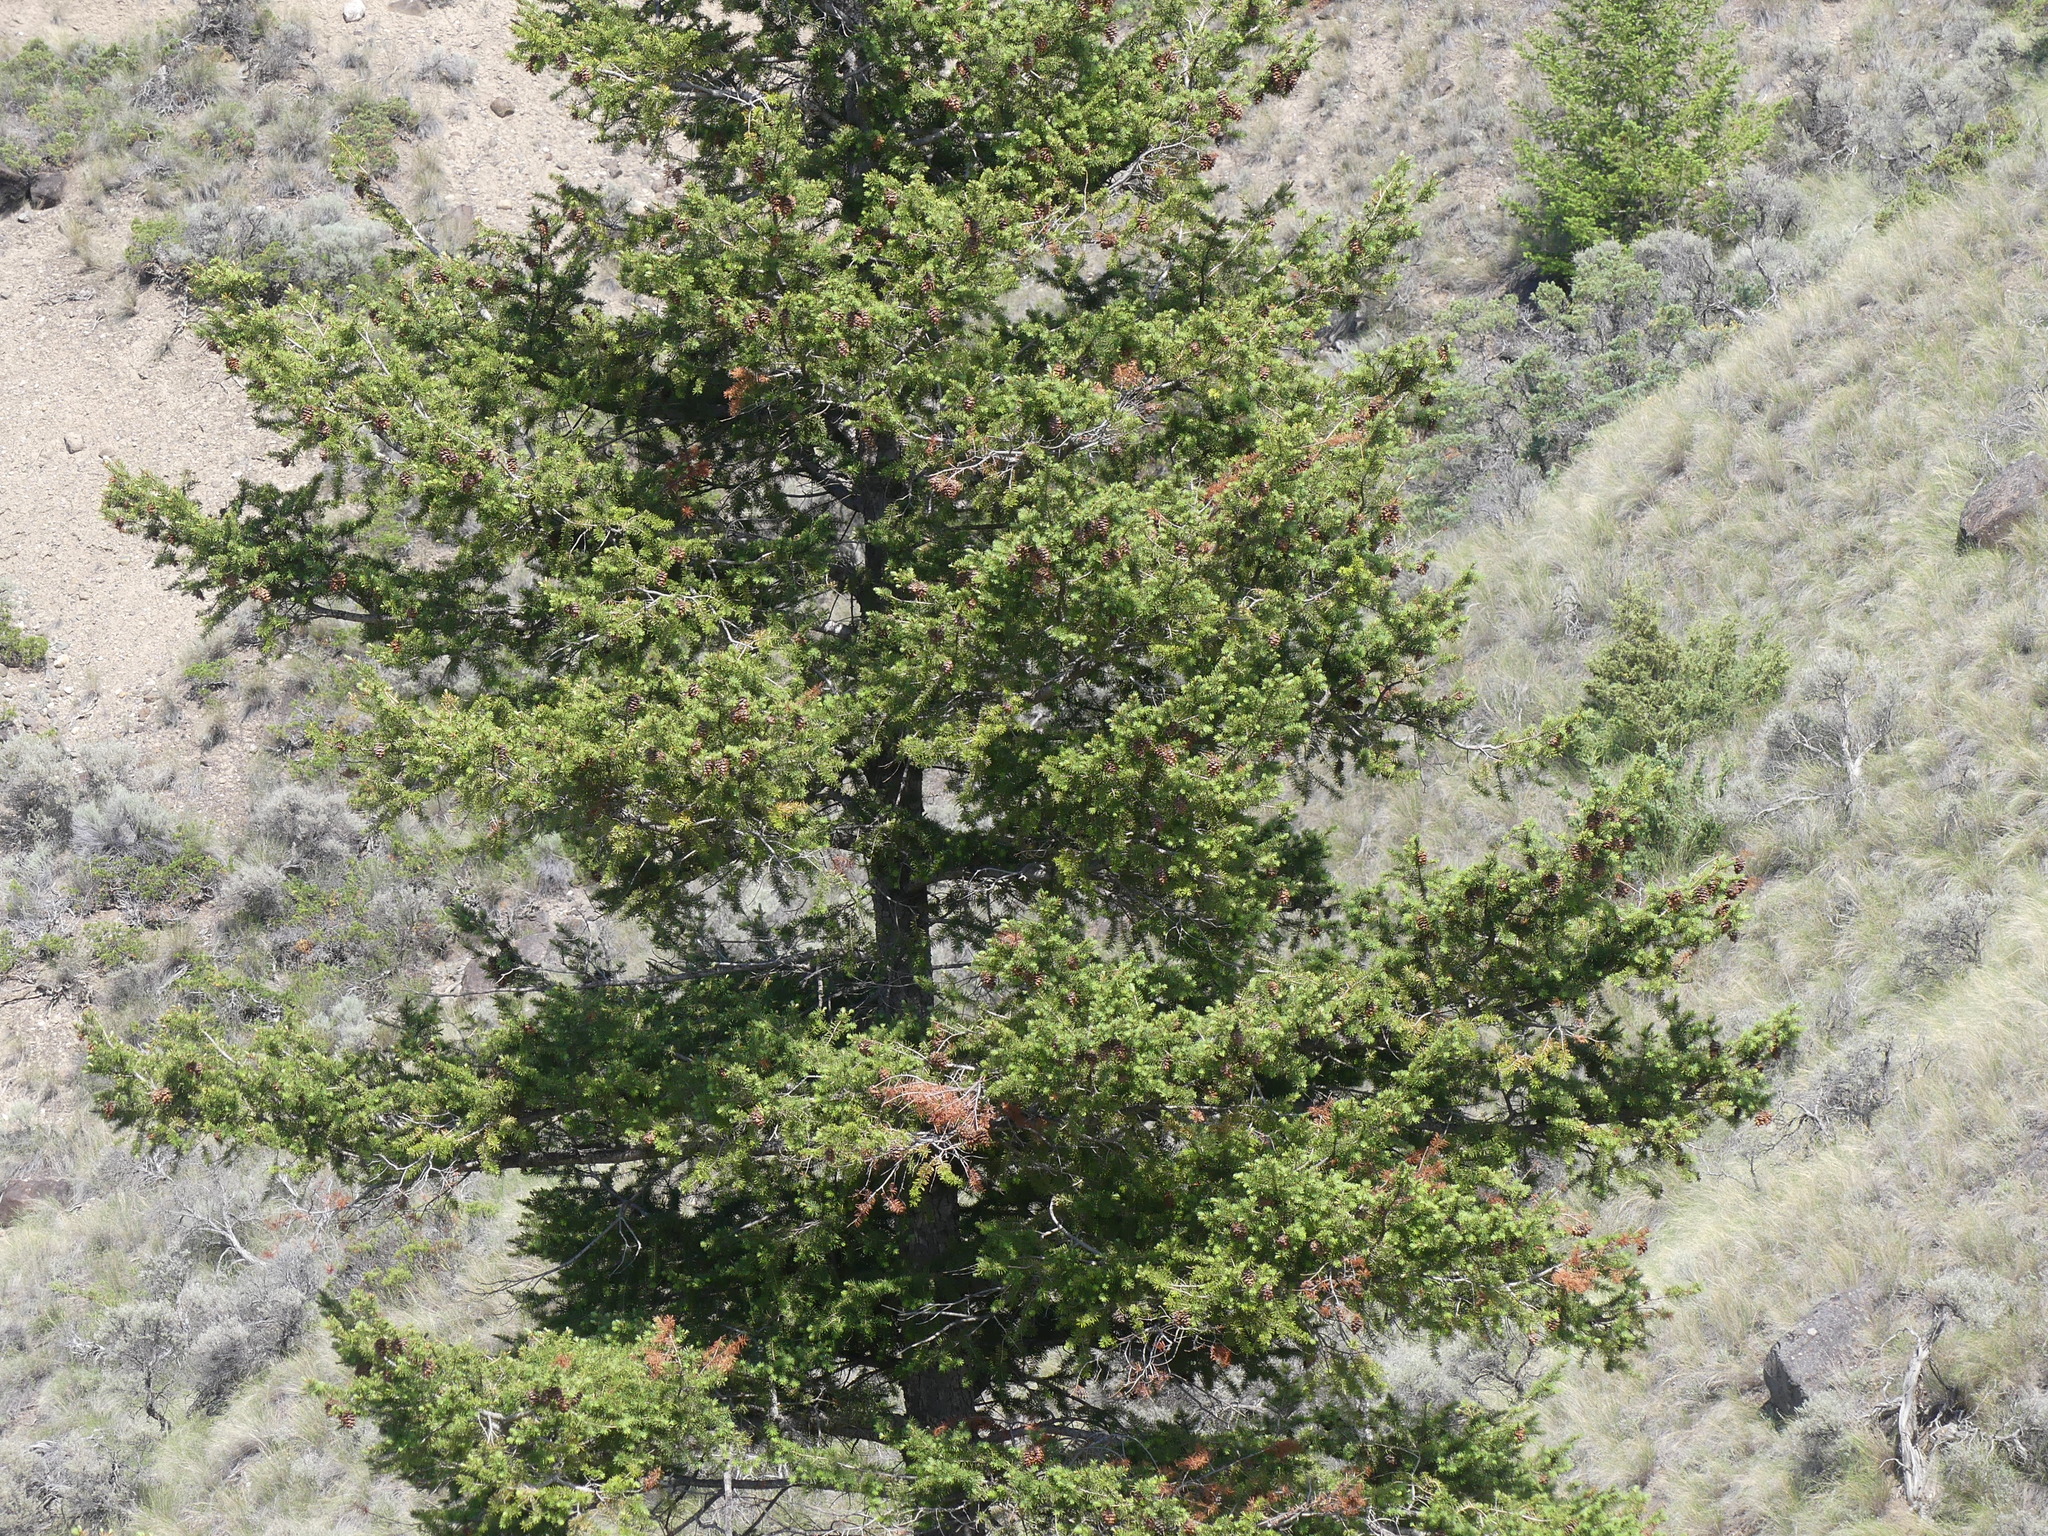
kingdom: Plantae
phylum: Tracheophyta
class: Pinopsida
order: Pinales
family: Pinaceae
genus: Pseudotsuga
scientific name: Pseudotsuga menziesii
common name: Douglas fir
